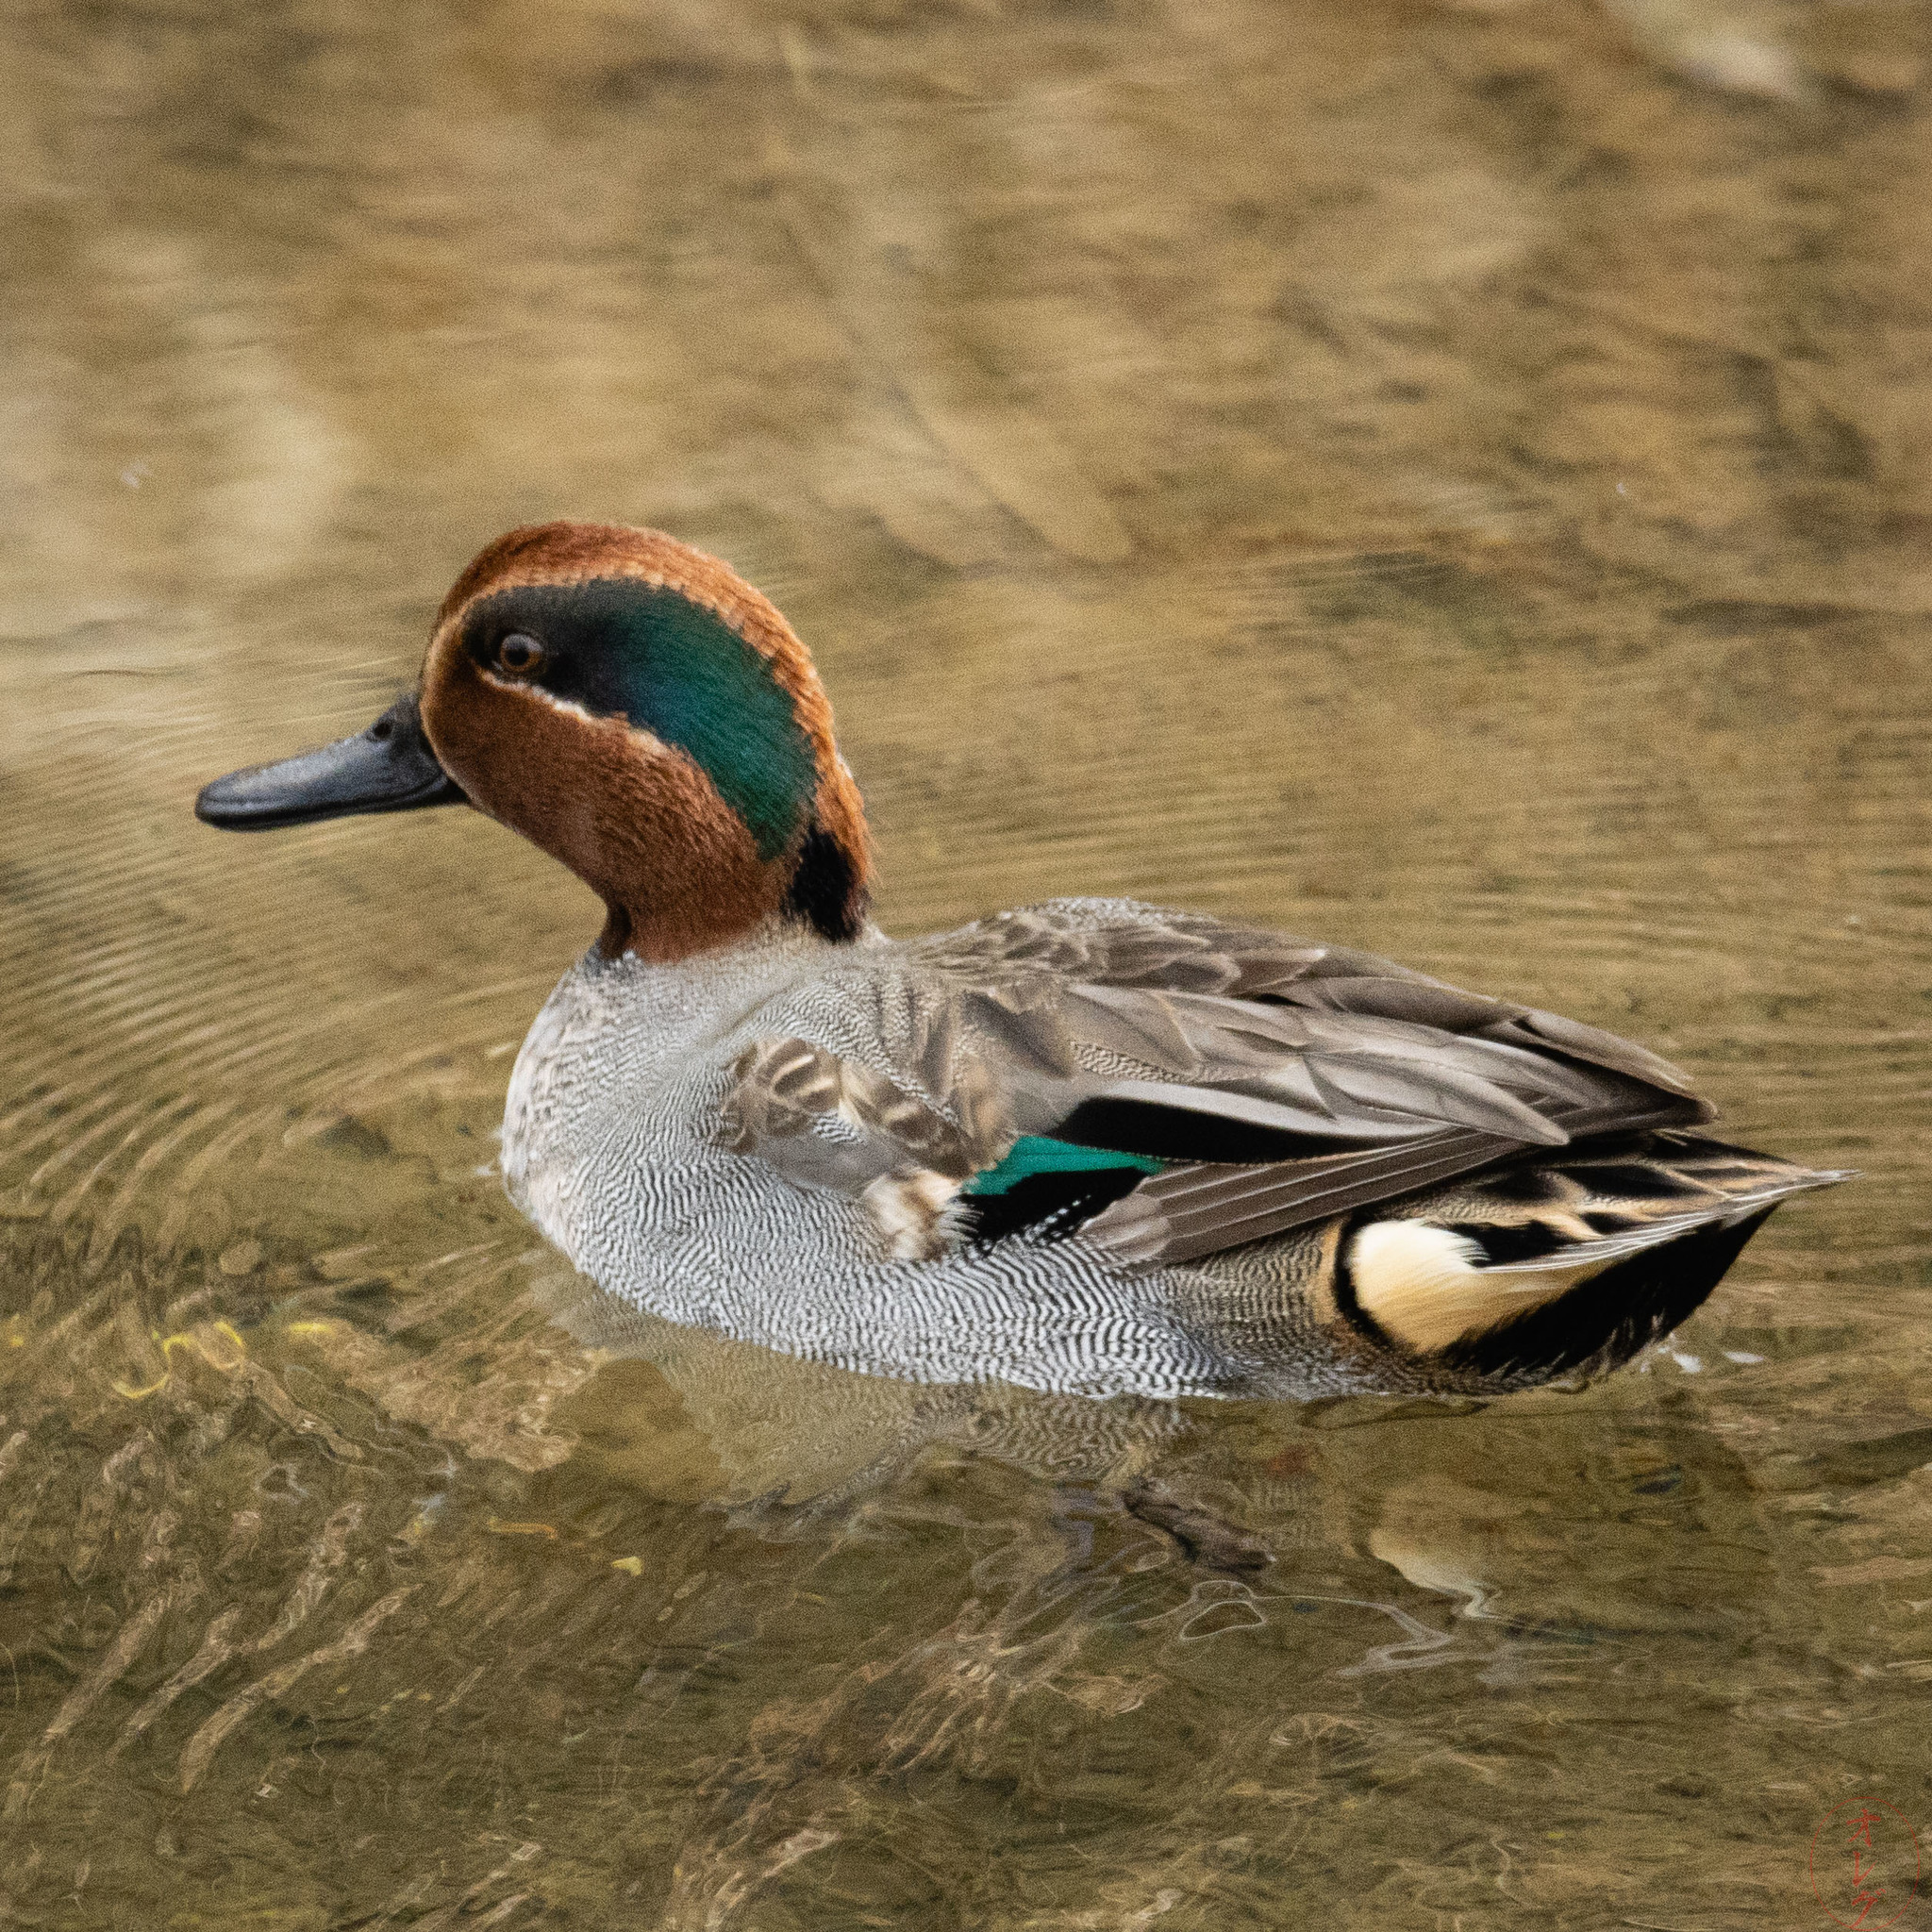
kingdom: Animalia
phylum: Chordata
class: Aves
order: Anseriformes
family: Anatidae
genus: Anas
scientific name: Anas crecca
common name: Eurasian teal
